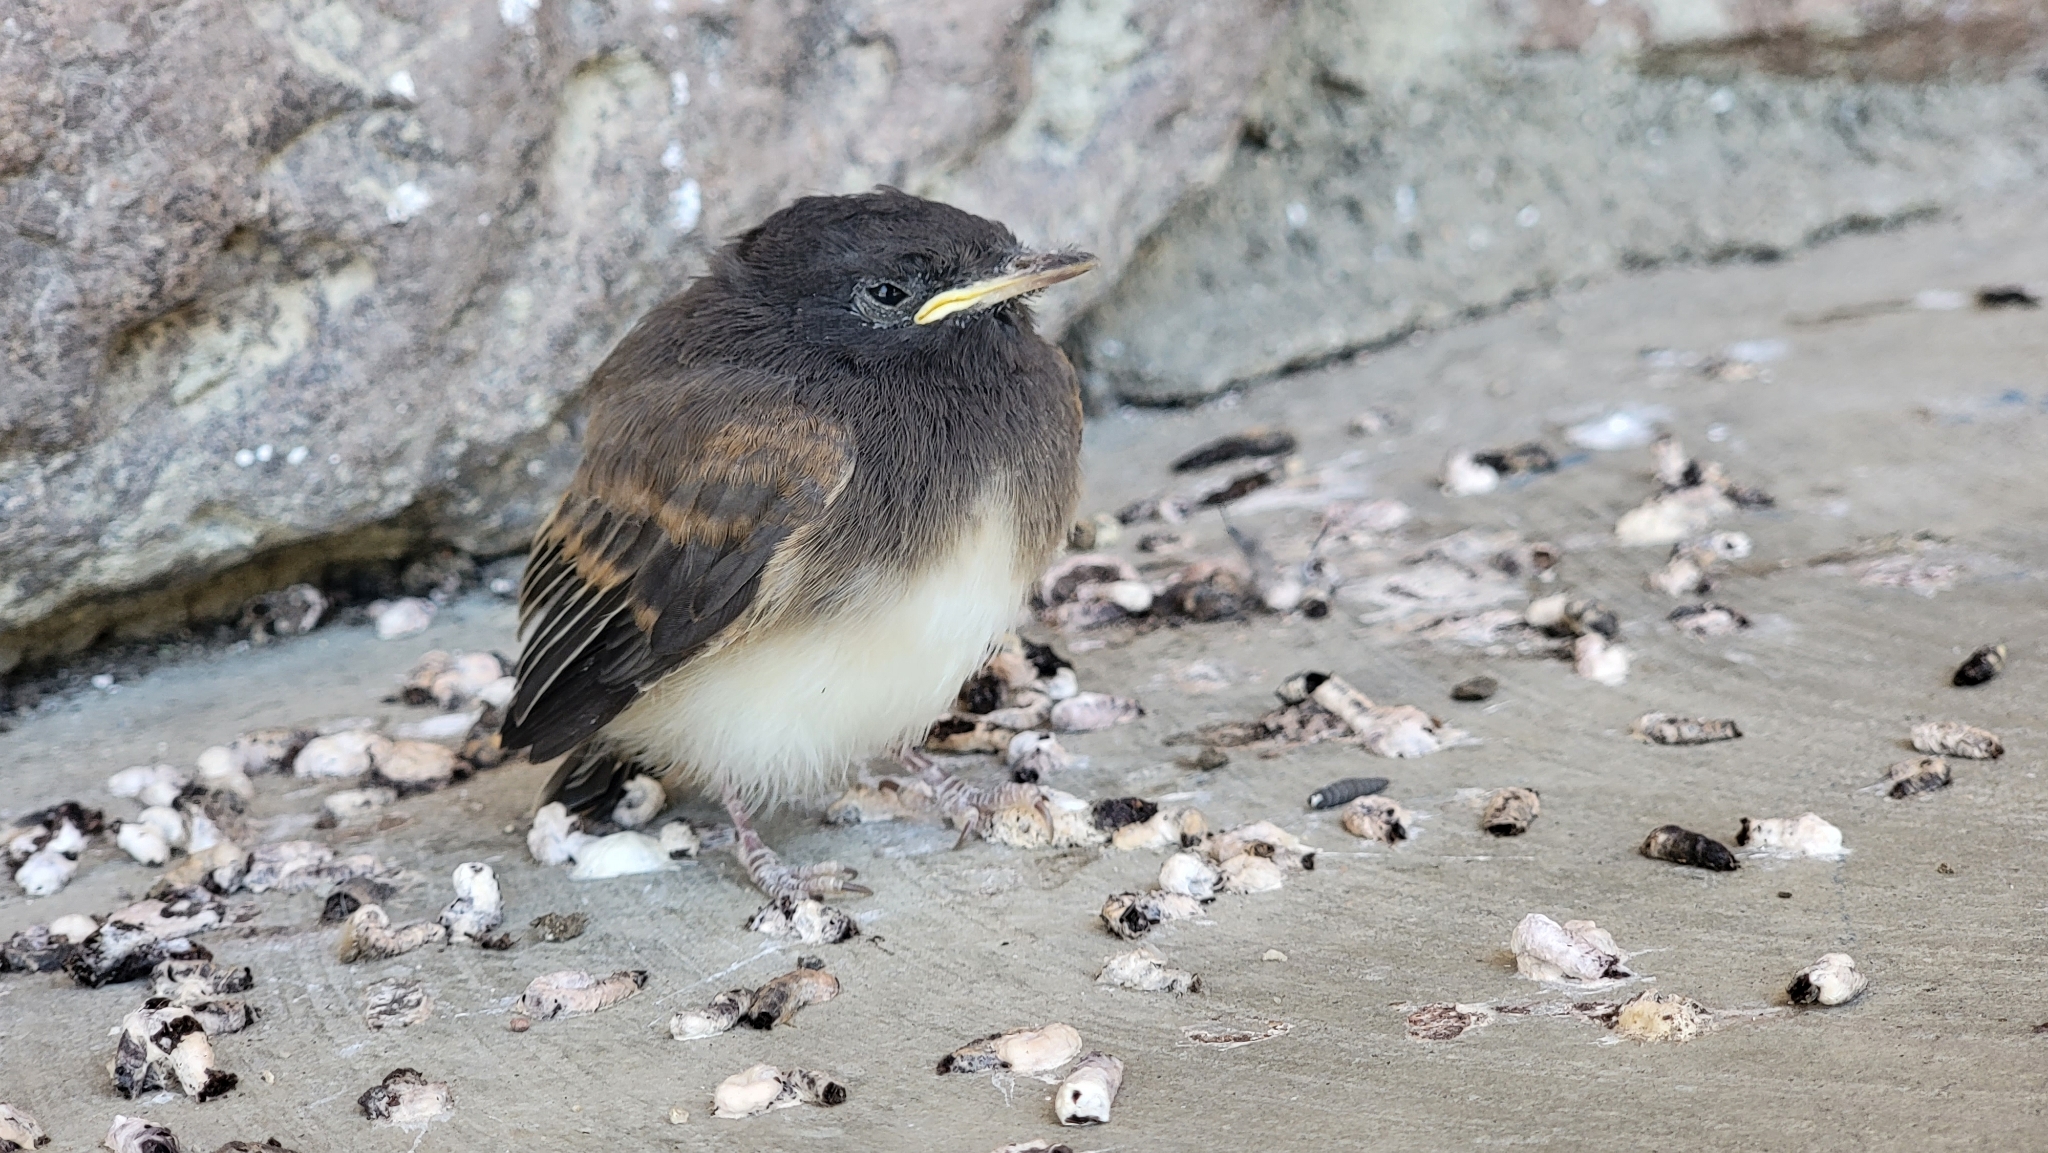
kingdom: Animalia
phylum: Chordata
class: Aves
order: Passeriformes
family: Tyrannidae
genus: Sayornis
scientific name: Sayornis nigricans
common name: Black phoebe
